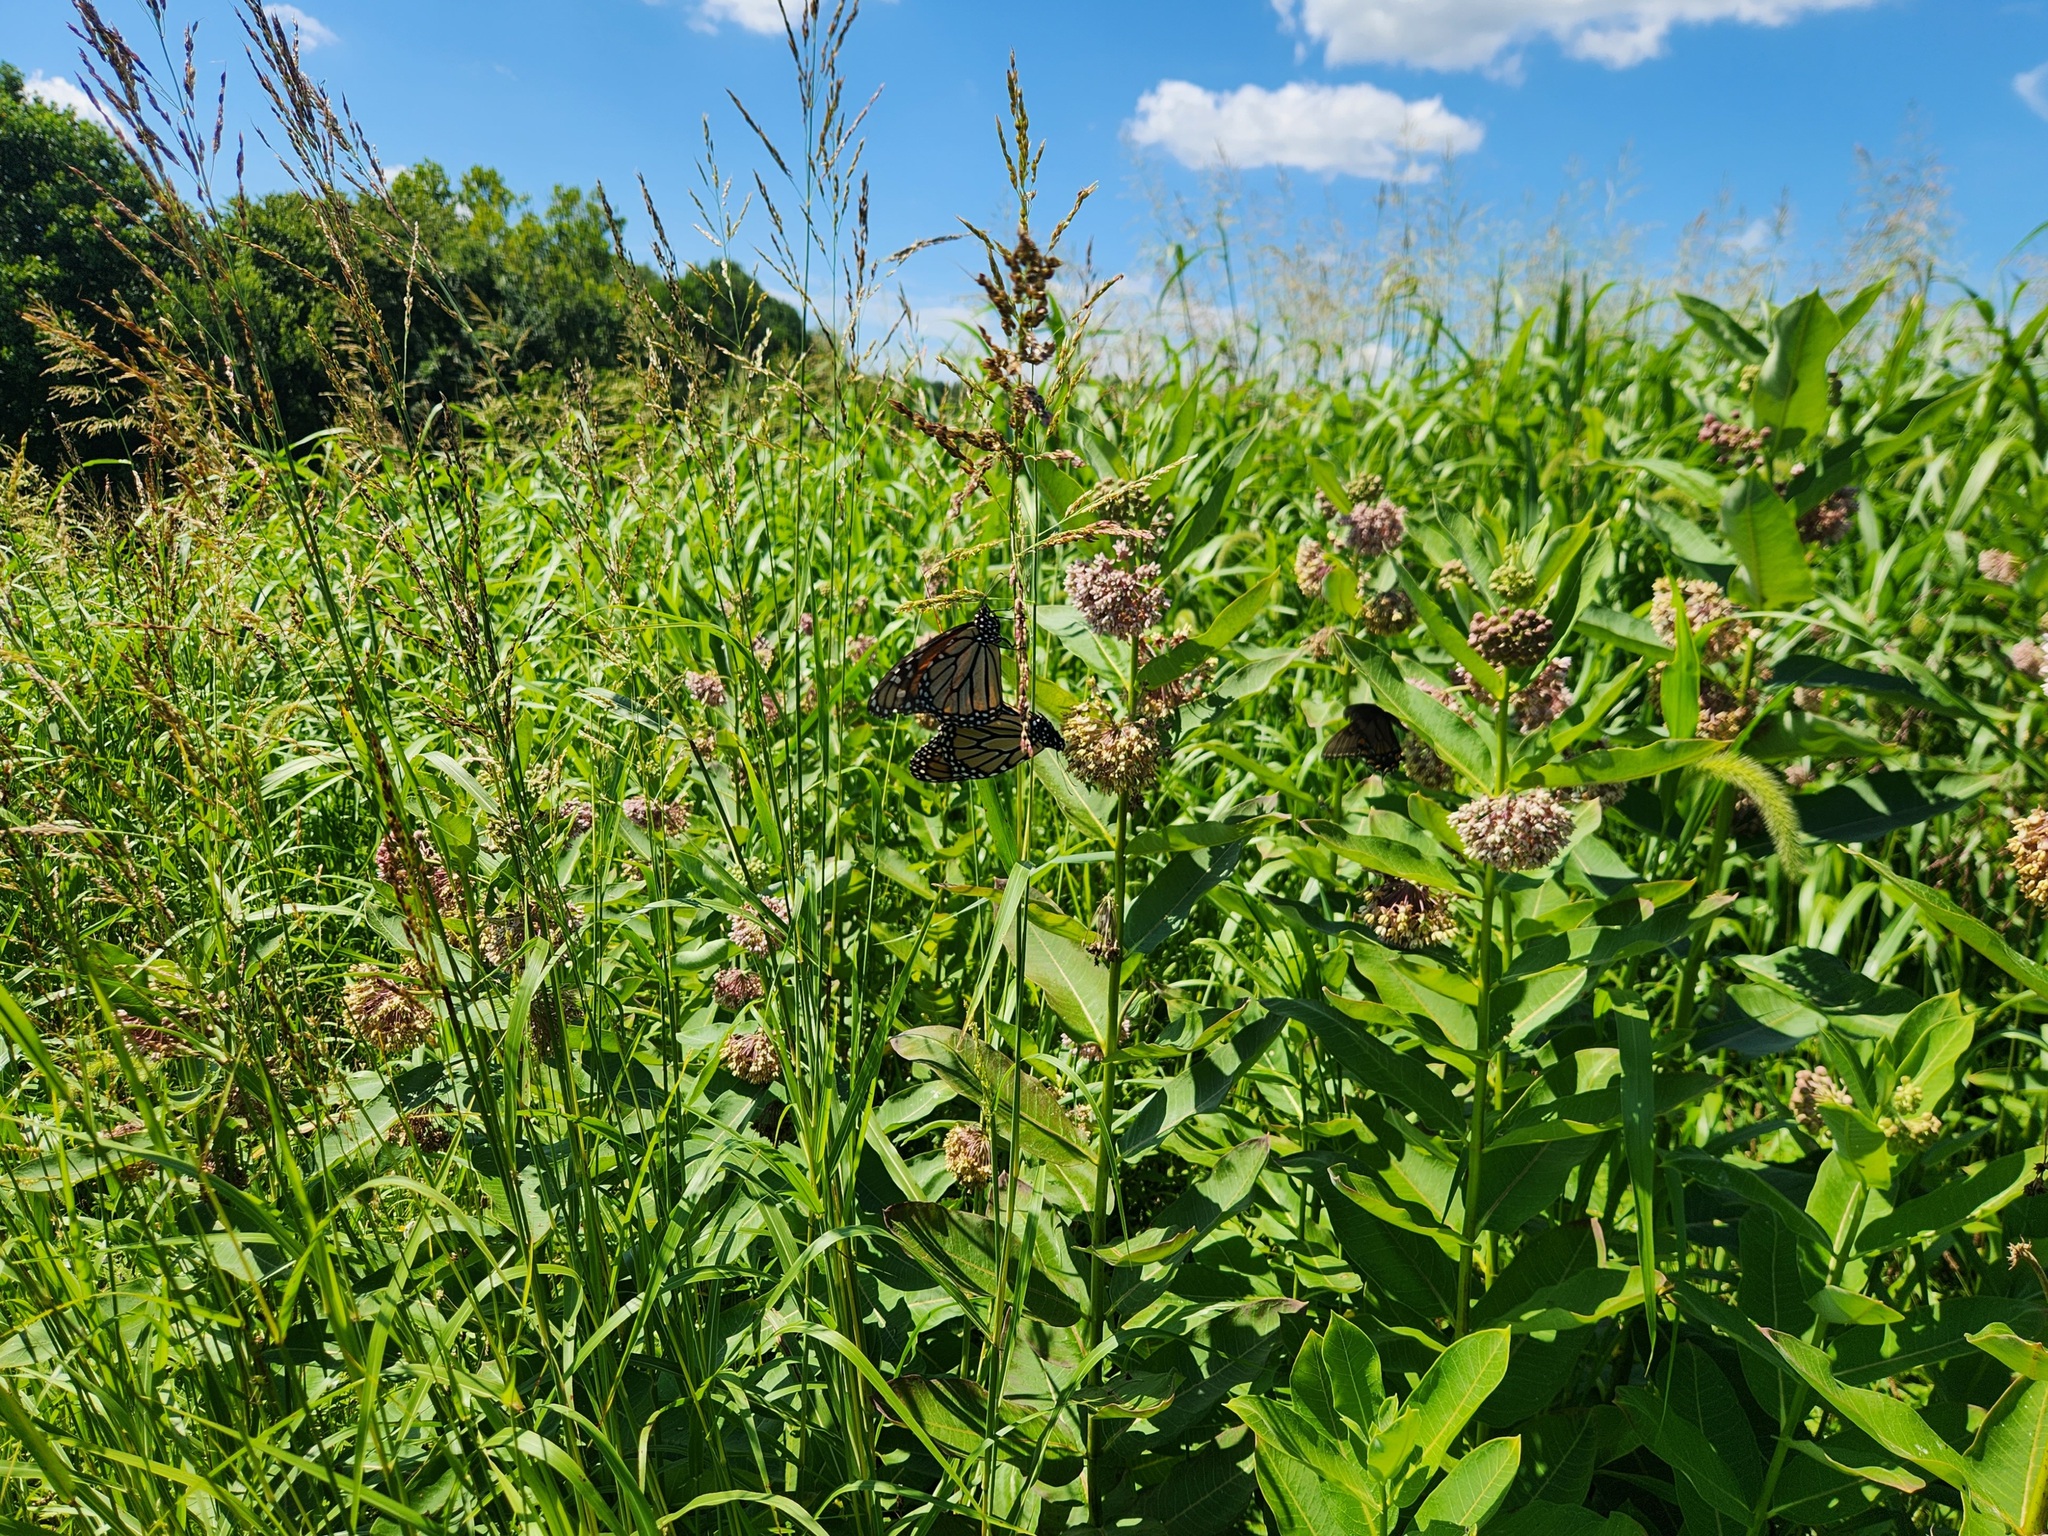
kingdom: Animalia
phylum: Arthropoda
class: Insecta
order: Lepidoptera
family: Nymphalidae
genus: Danaus
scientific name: Danaus plexippus
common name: Monarch
